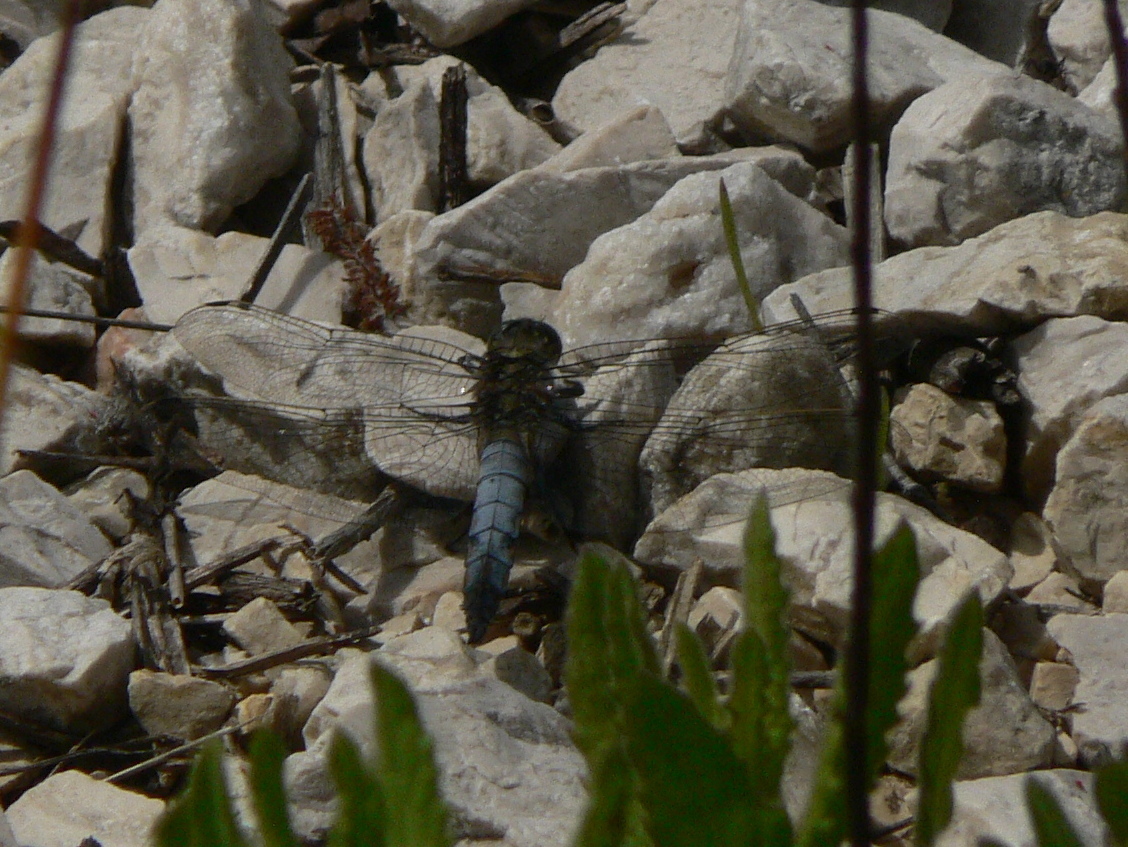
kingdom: Animalia
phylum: Arthropoda
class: Insecta
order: Odonata
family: Libellulidae
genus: Orthetrum
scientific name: Orthetrum cancellatum
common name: Black-tailed skimmer
